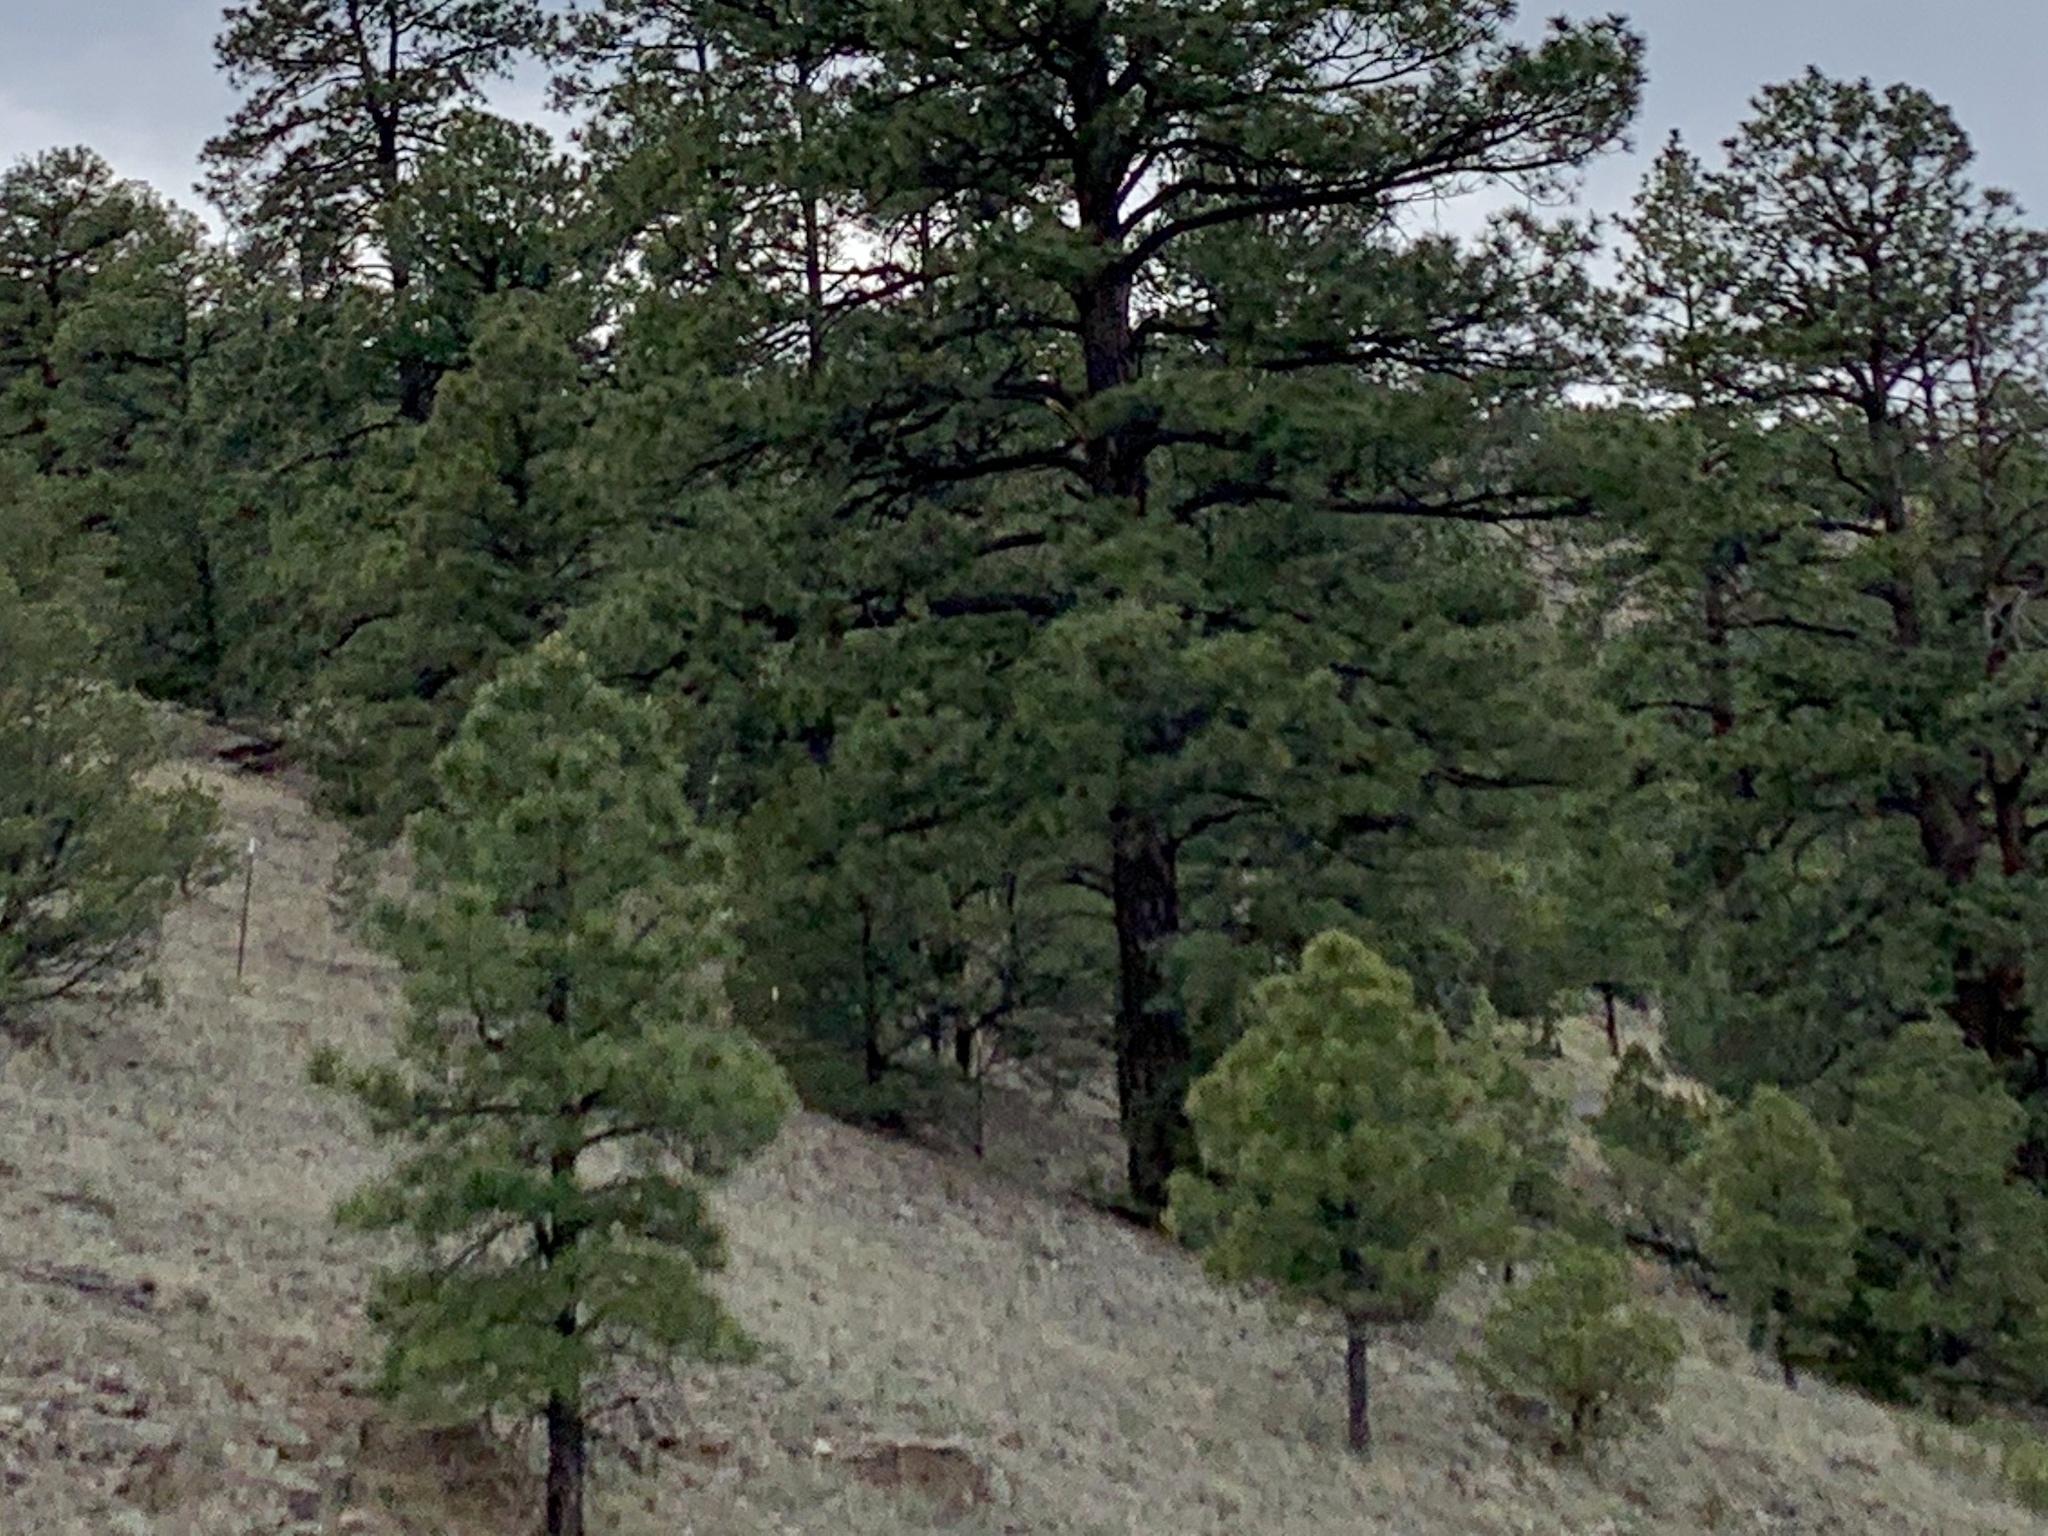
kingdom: Plantae
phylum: Tracheophyta
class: Pinopsida
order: Pinales
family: Pinaceae
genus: Pinus
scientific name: Pinus ponderosa
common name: Western yellow-pine
